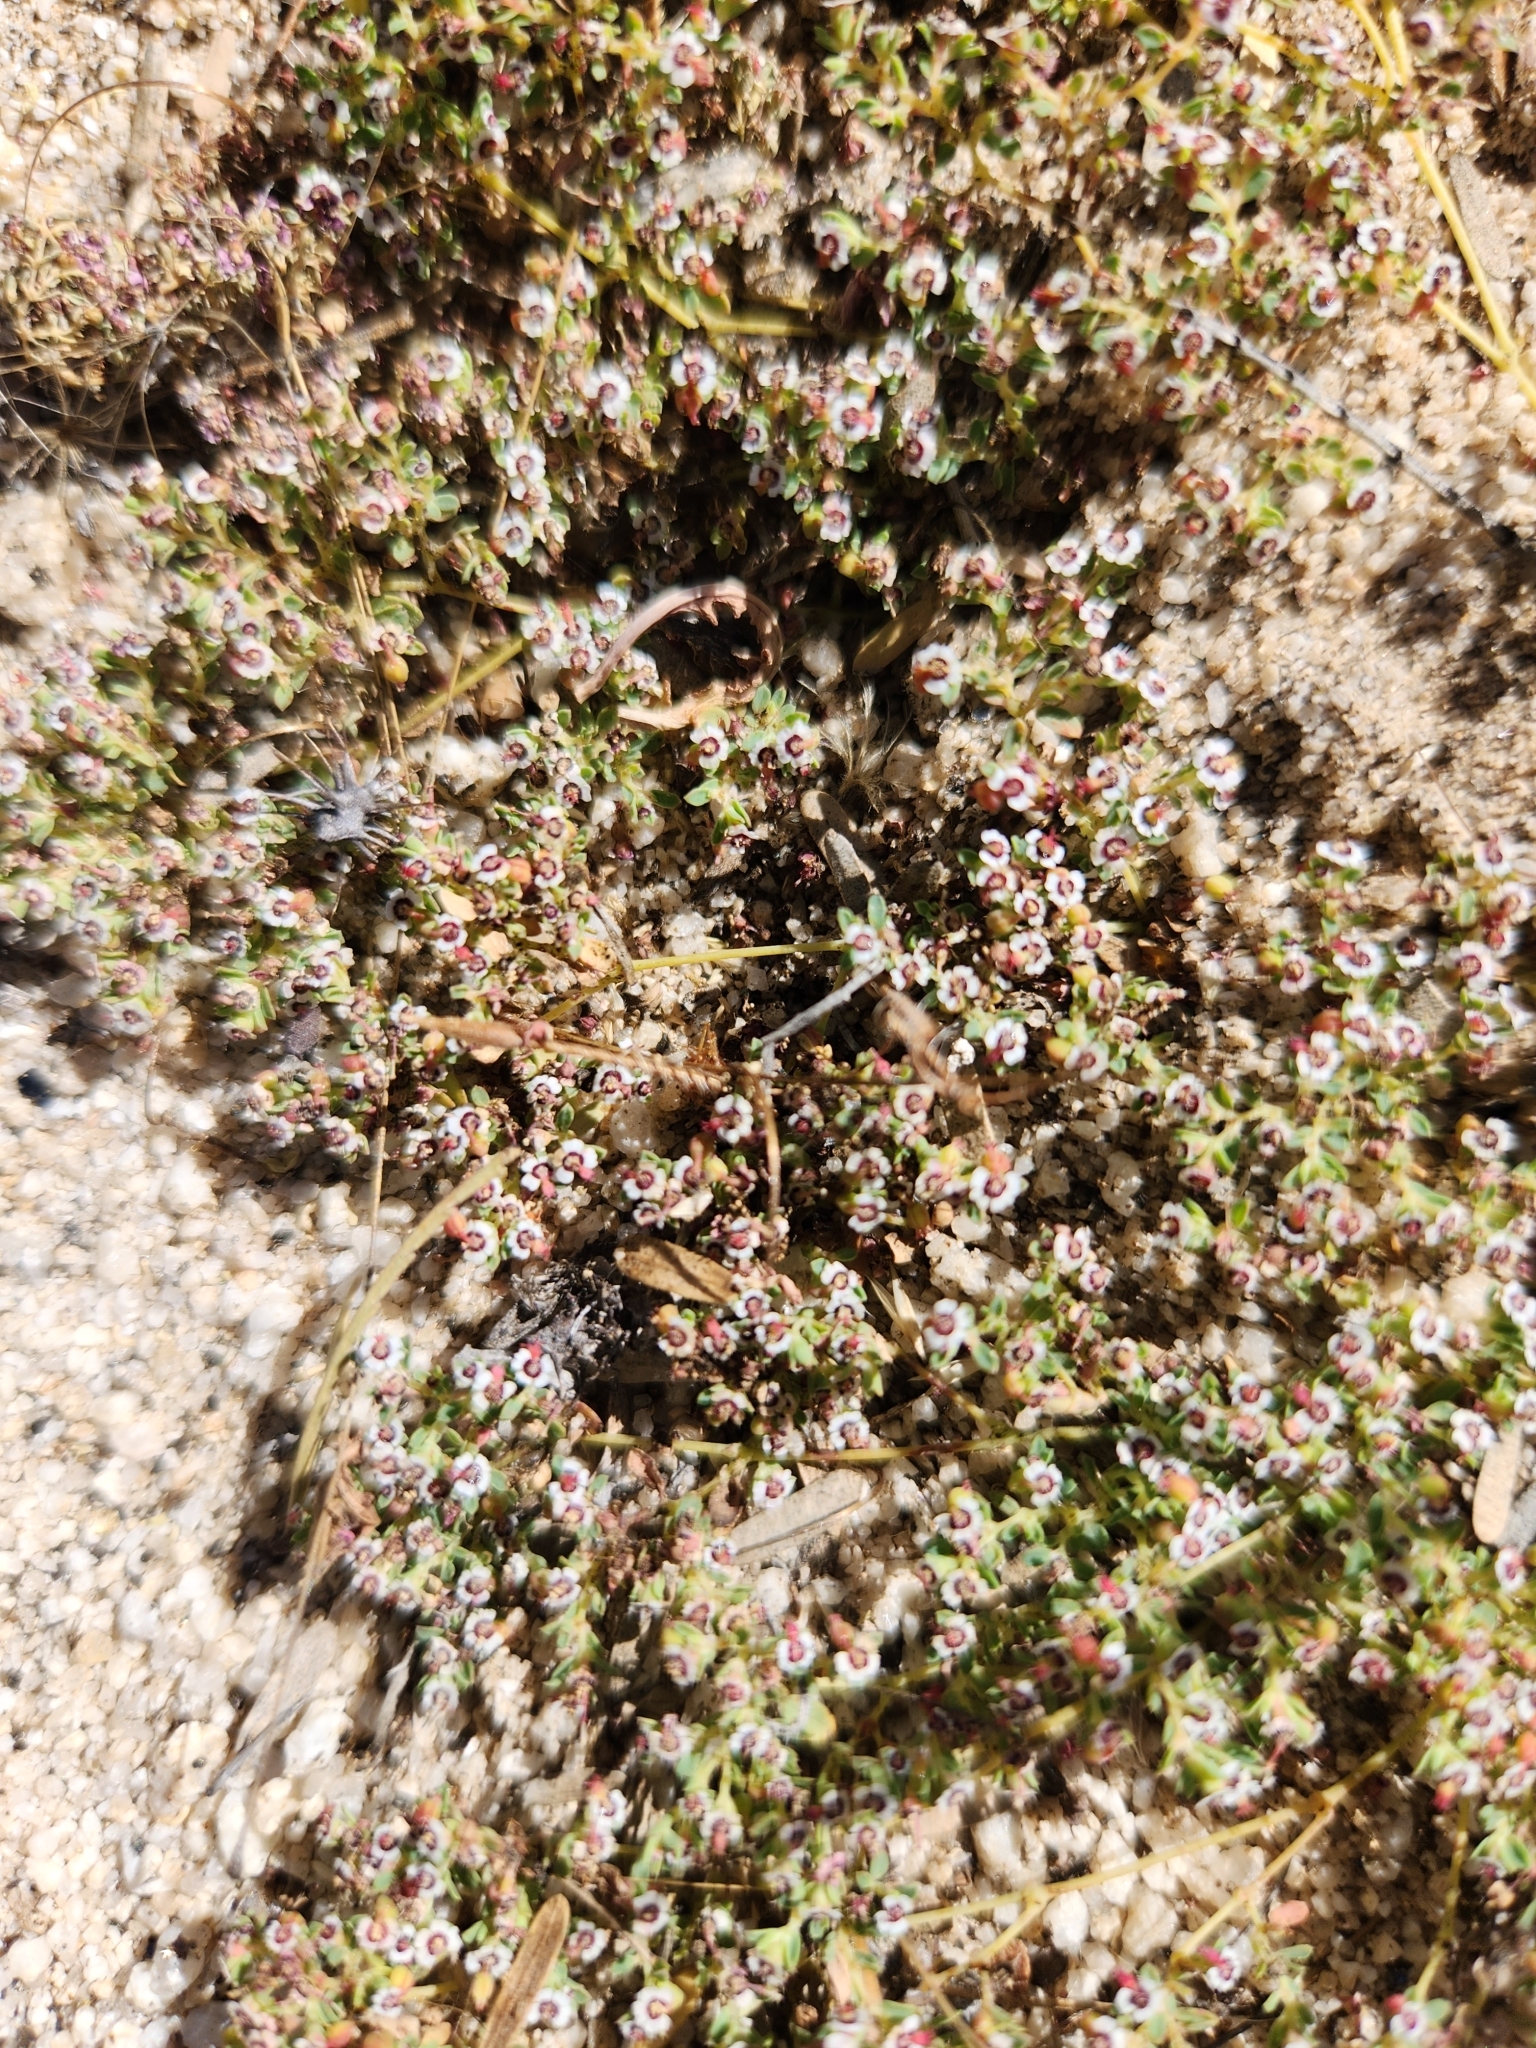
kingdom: Plantae
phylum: Tracheophyta
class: Magnoliopsida
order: Malpighiales
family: Euphorbiaceae
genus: Euphorbia
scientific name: Euphorbia polycarpa
